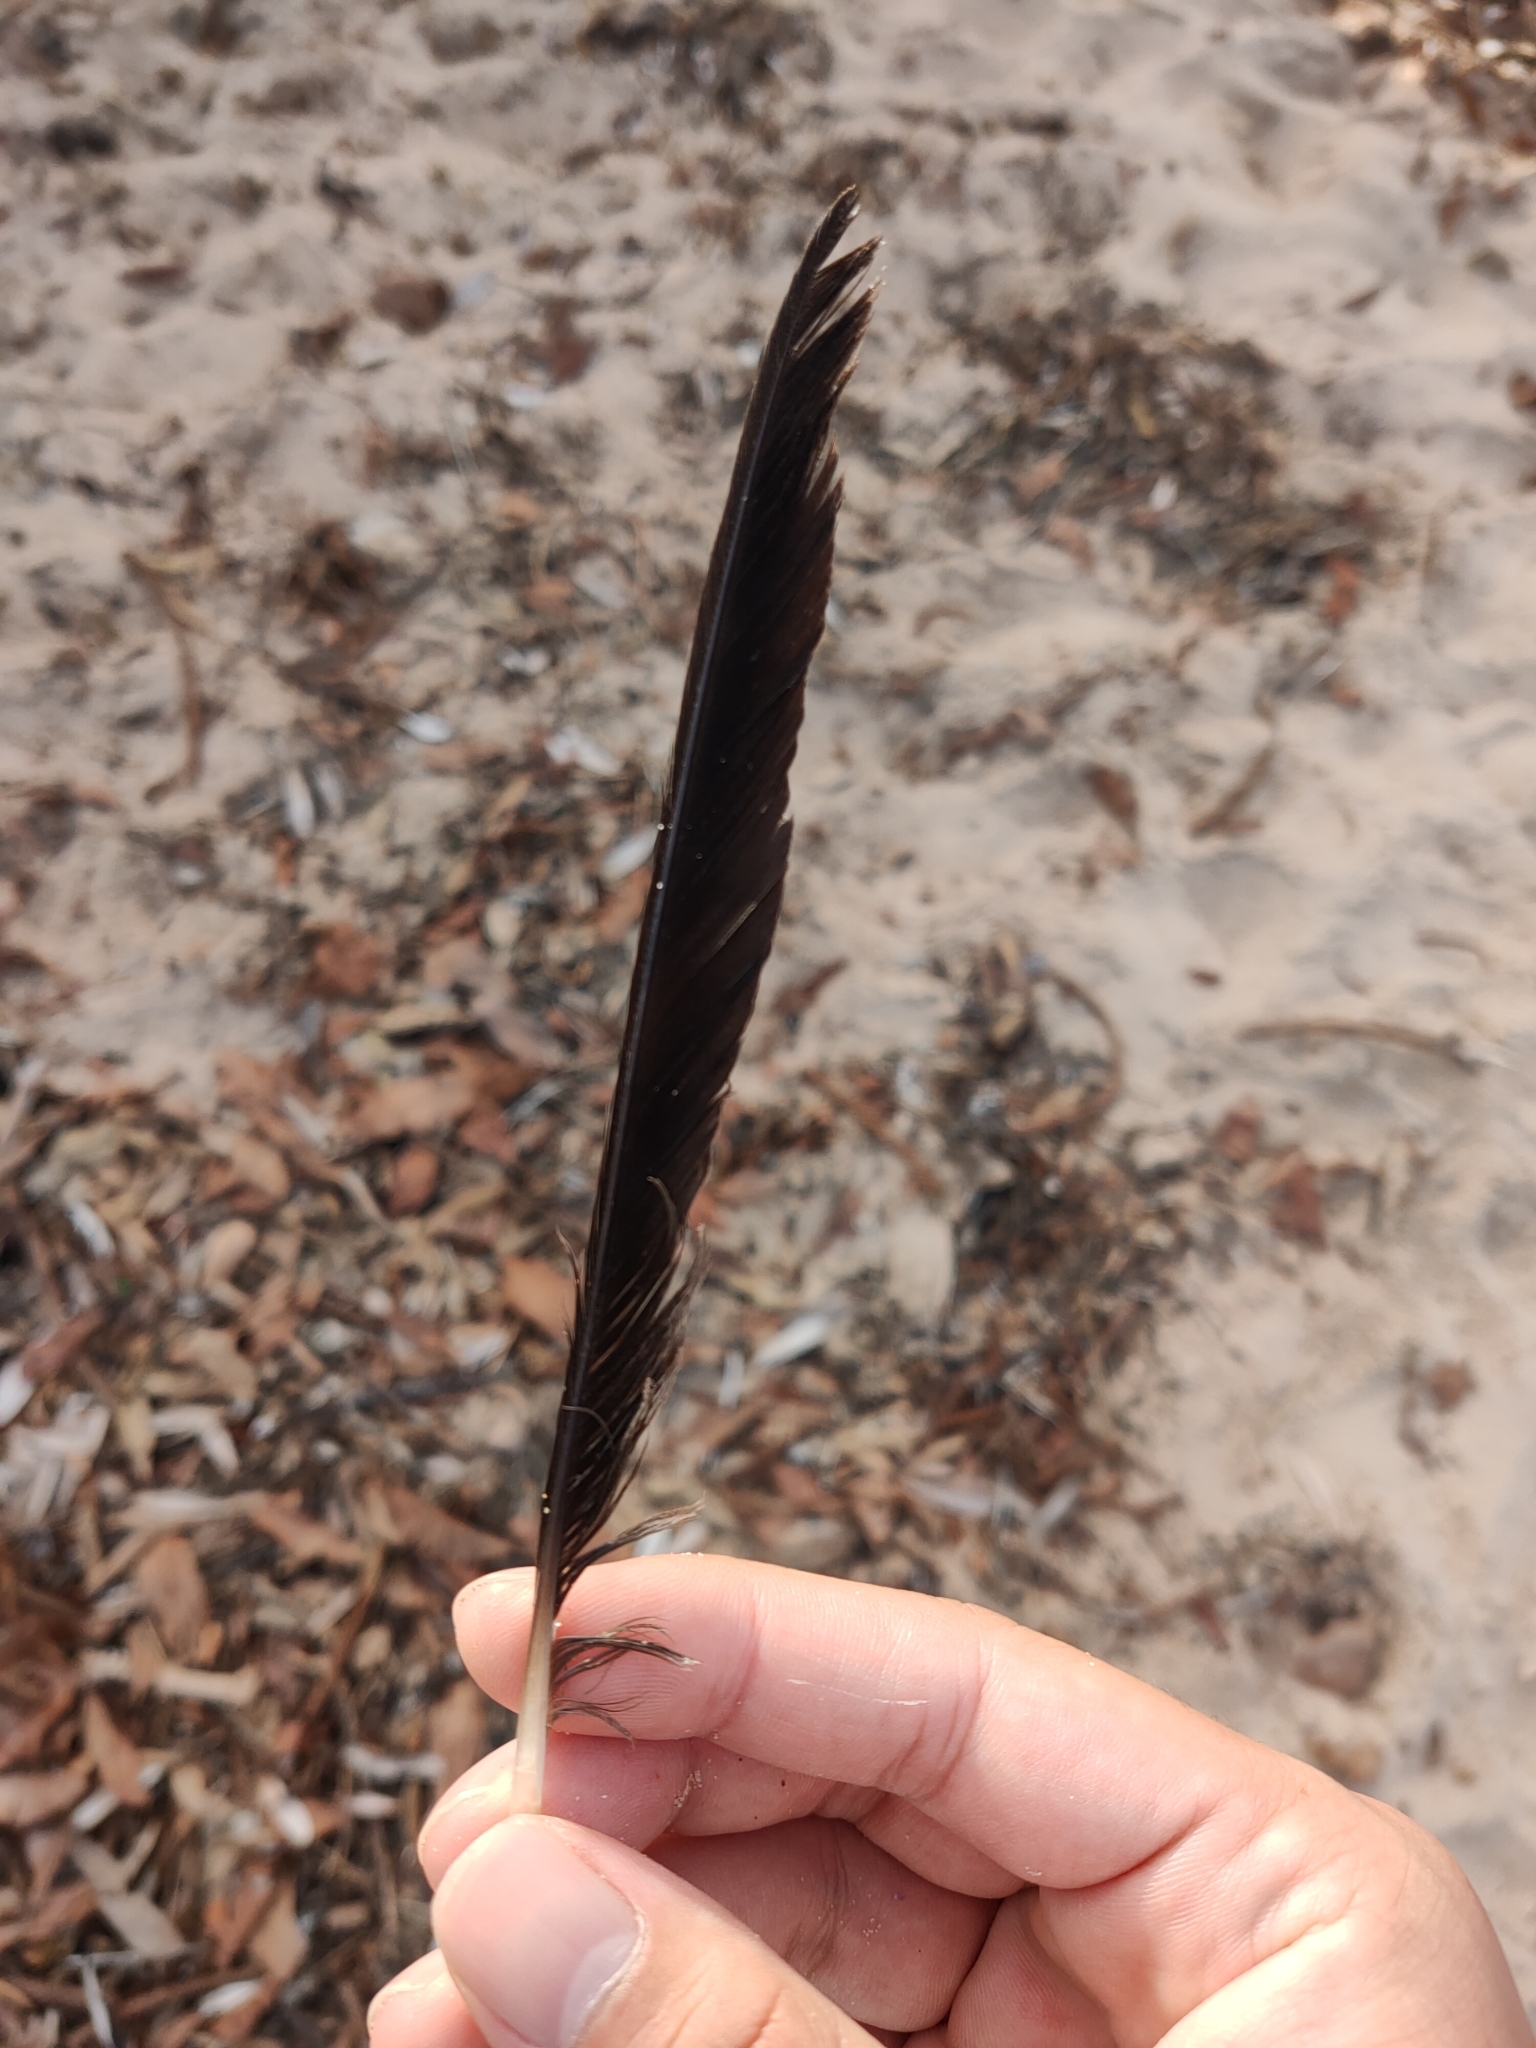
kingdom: Animalia
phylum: Chordata
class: Aves
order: Passeriformes
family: Cracticidae
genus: Gymnorhina
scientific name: Gymnorhina tibicen
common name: Australian magpie
